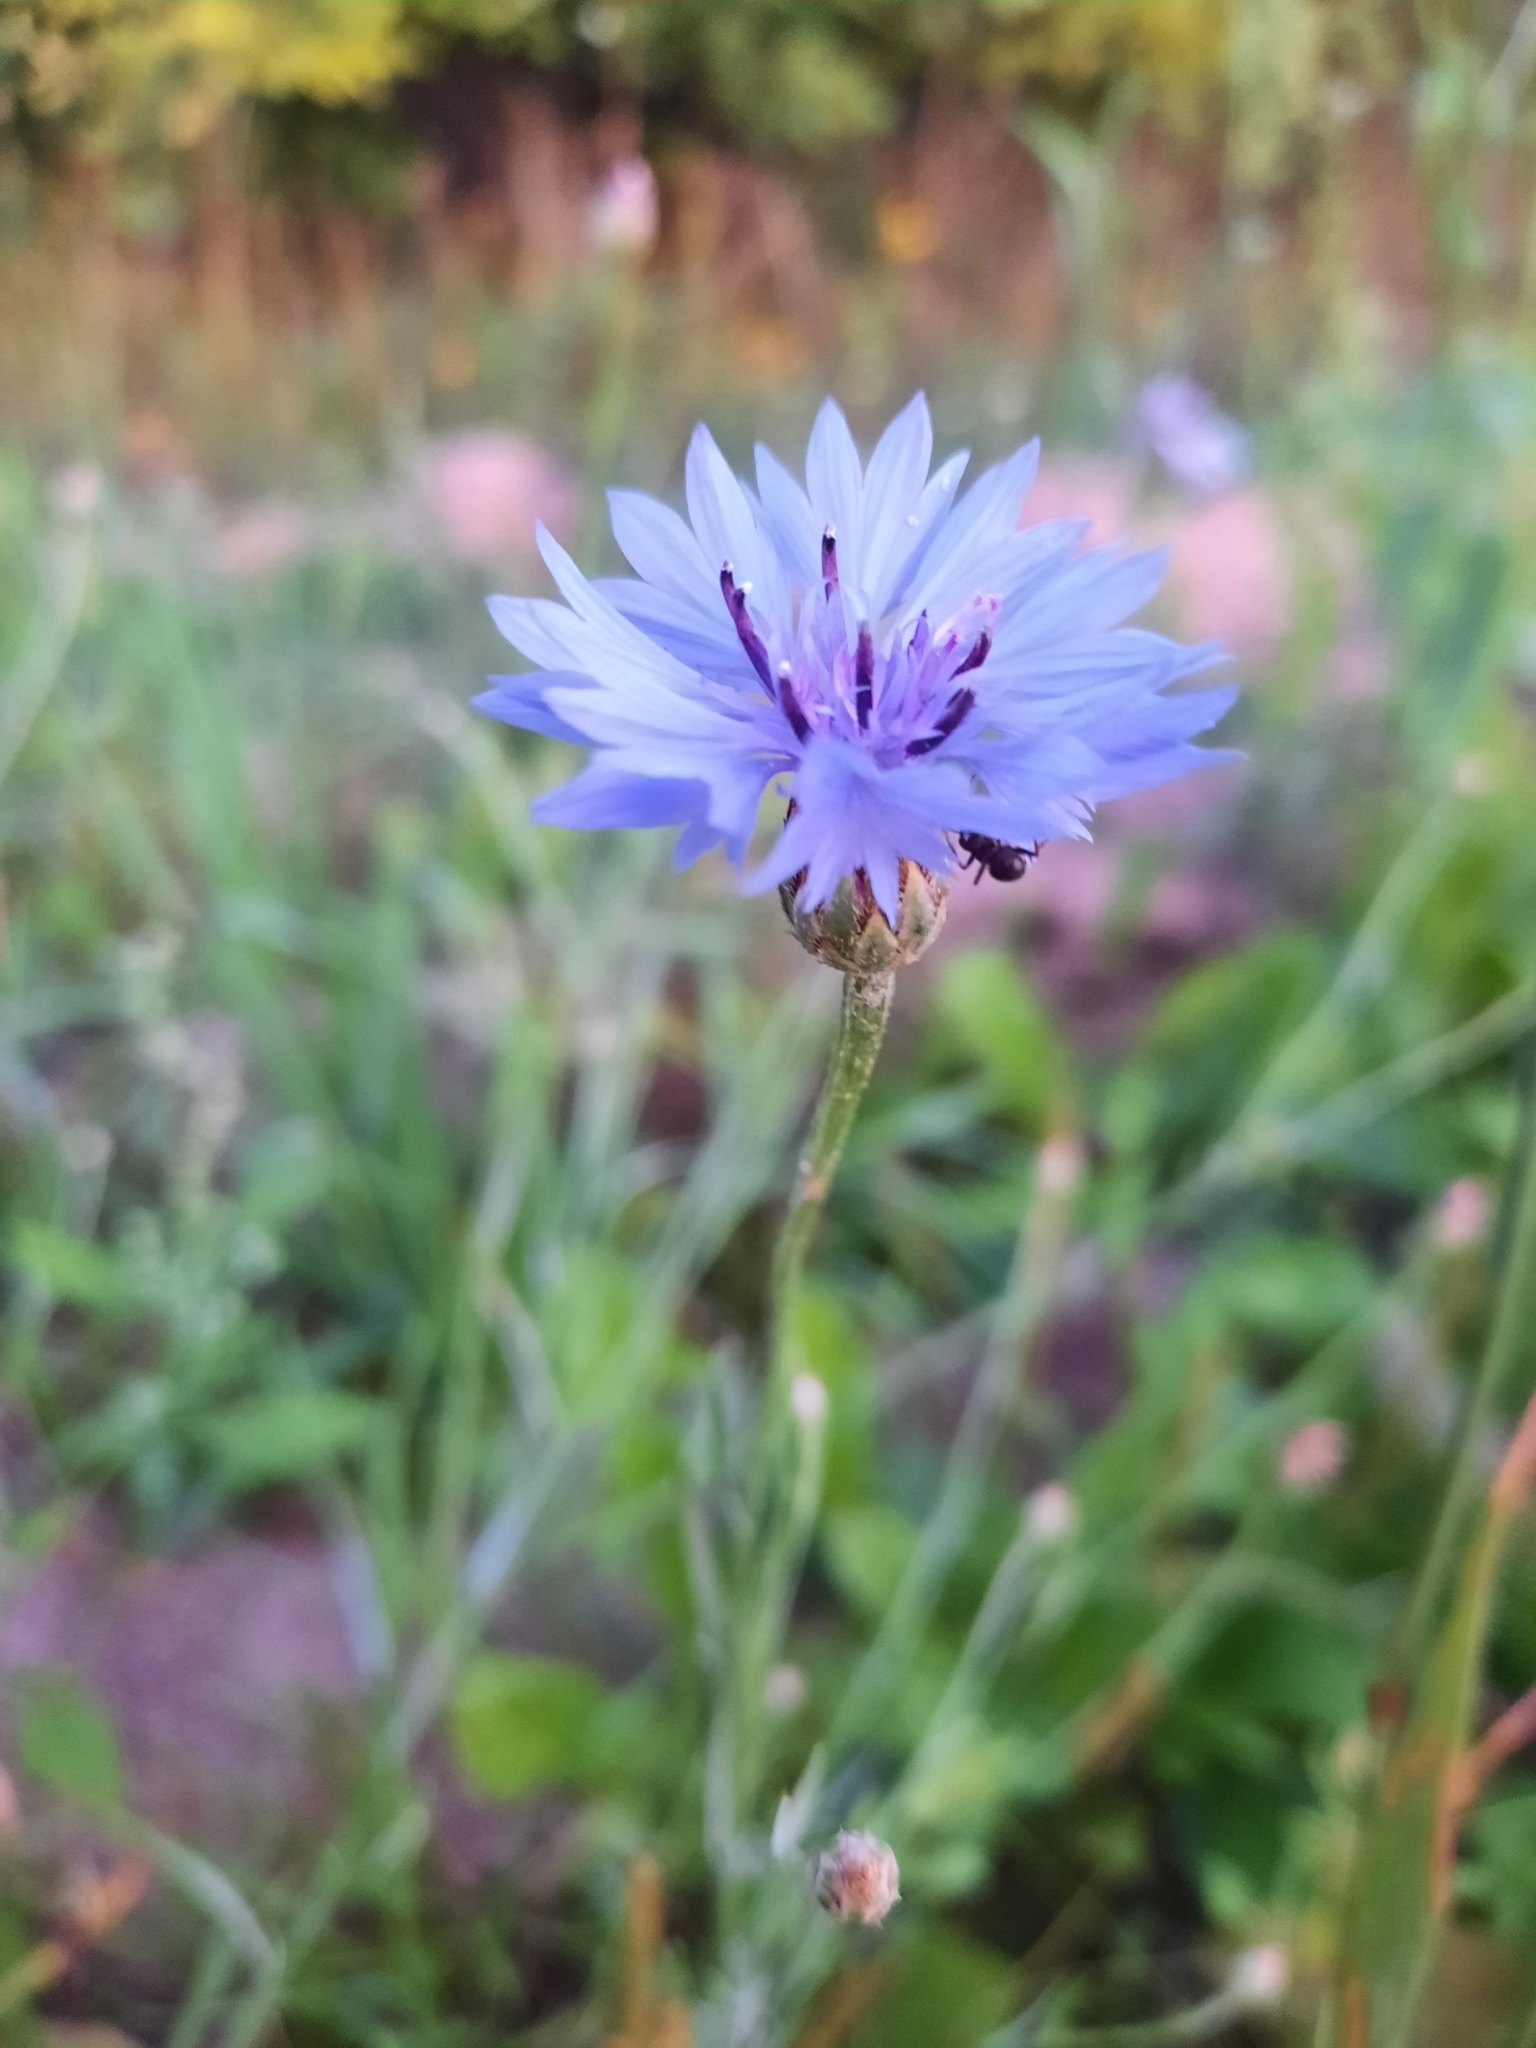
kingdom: Plantae
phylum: Tracheophyta
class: Magnoliopsida
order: Asterales
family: Asteraceae
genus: Centaurea
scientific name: Centaurea cyanus
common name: Cornflower
